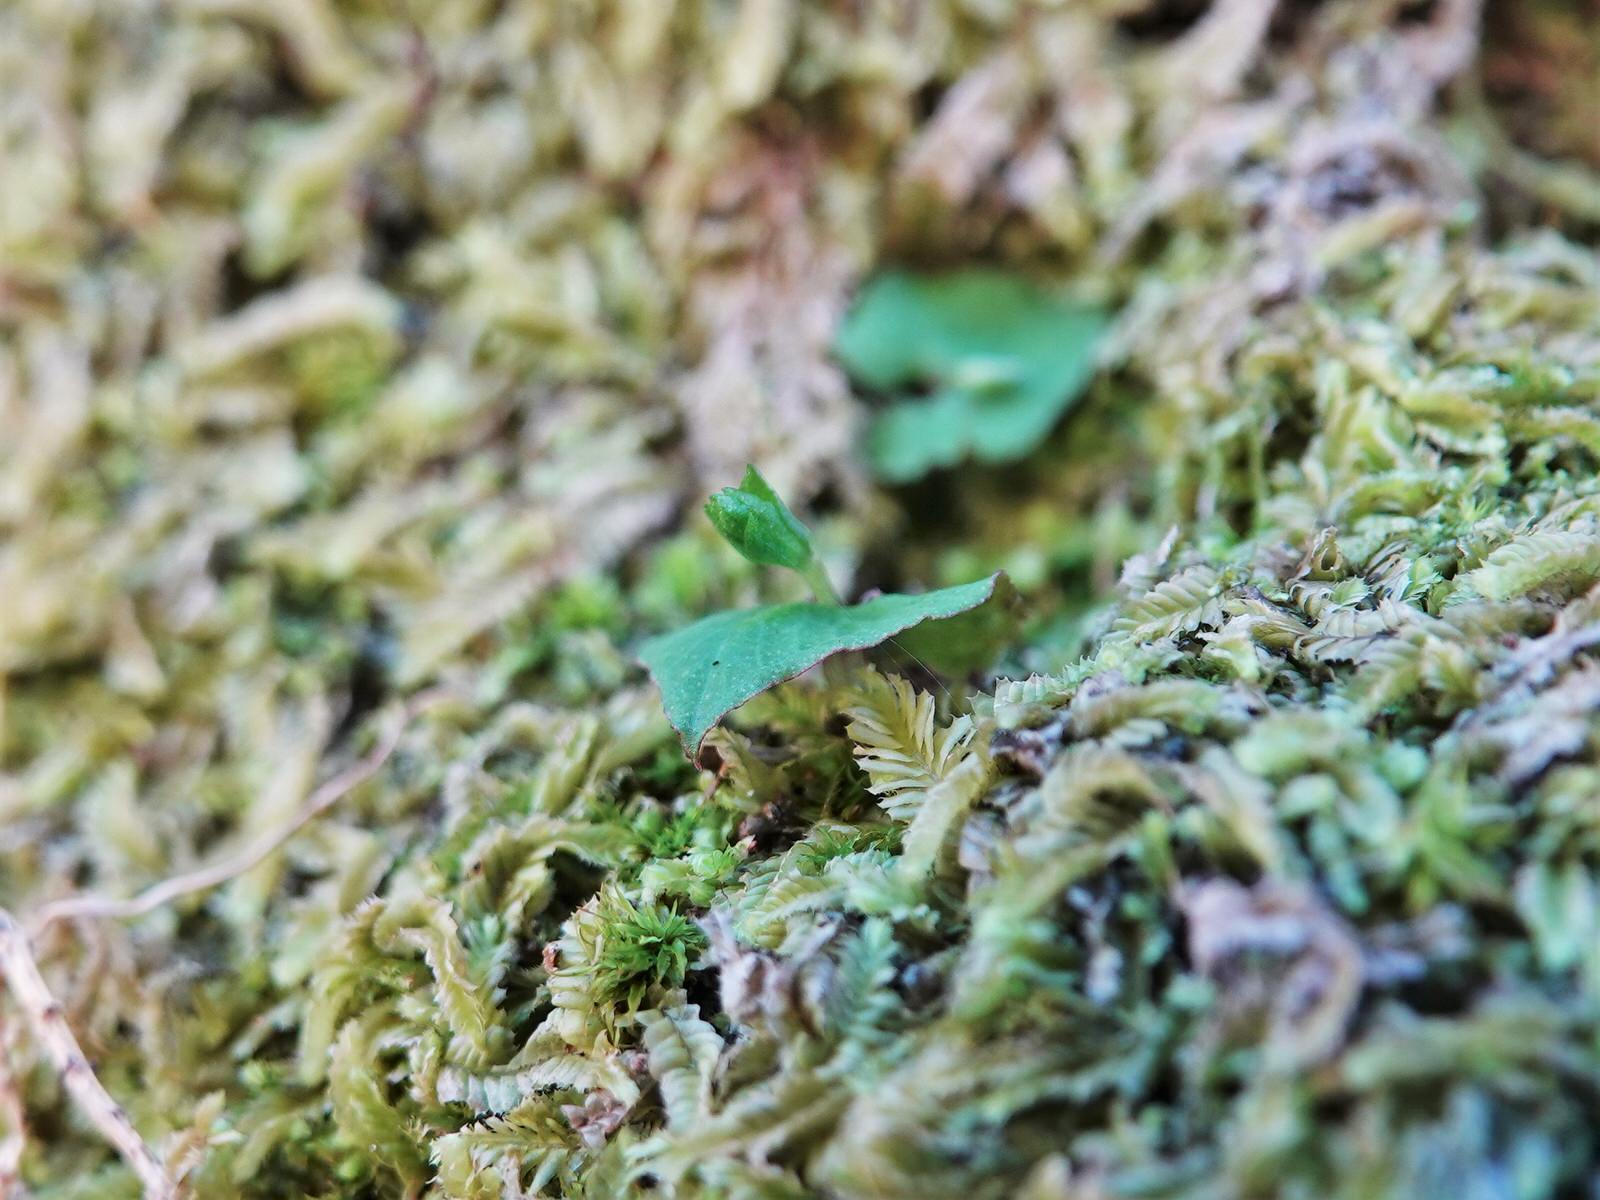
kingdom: Plantae
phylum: Tracheophyta
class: Liliopsida
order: Asparagales
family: Orchidaceae
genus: Acianthus
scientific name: Acianthus sinclairii
